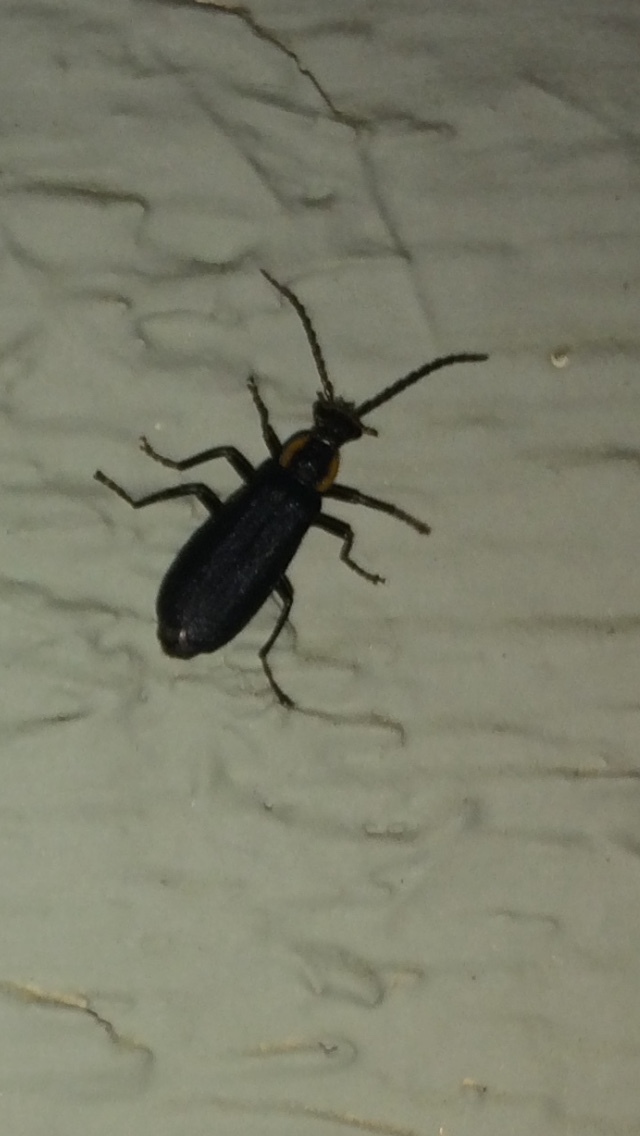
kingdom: Animalia
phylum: Arthropoda
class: Insecta
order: Coleoptera
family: Cantharidae
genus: Podabrus
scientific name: Podabrus rugosulus
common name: Wrinkled soldier beetle
